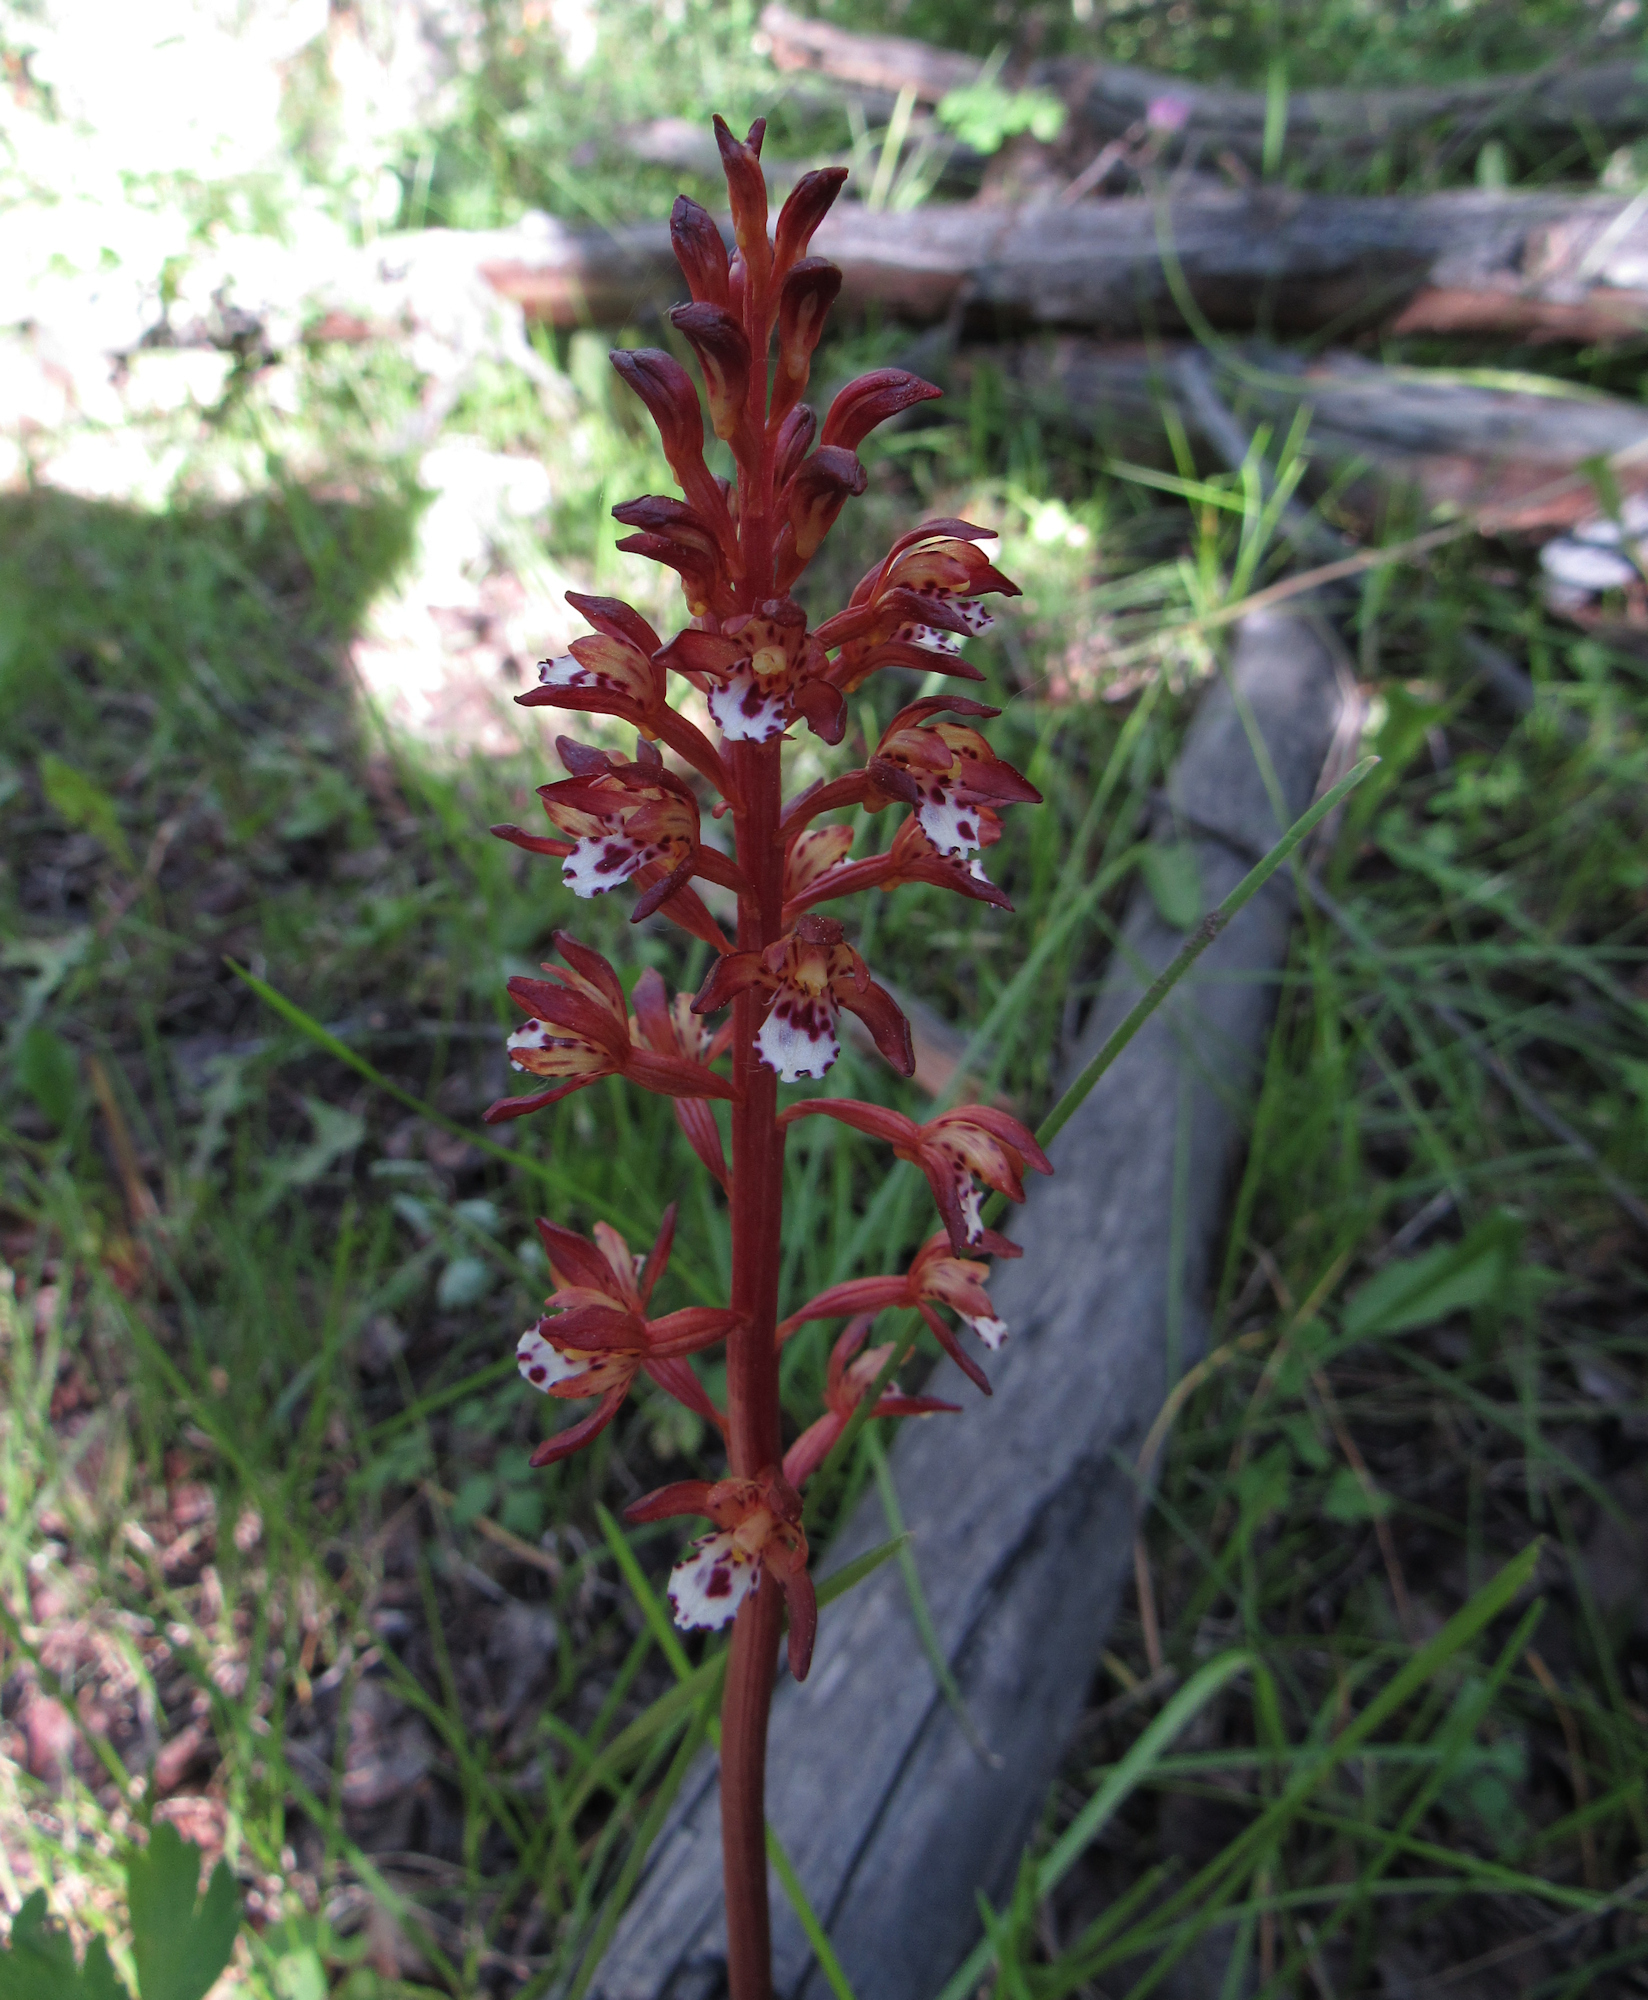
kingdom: Plantae
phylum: Tracheophyta
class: Liliopsida
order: Asparagales
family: Orchidaceae
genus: Corallorhiza
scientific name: Corallorhiza maculata
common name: Spotted coralroot
